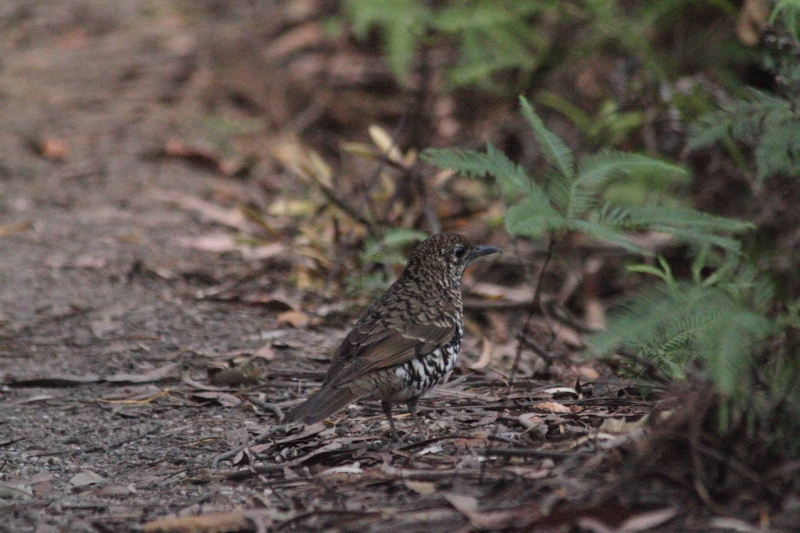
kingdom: Animalia
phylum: Chordata
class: Aves
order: Passeriformes
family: Turdidae
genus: Zoothera
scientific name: Zoothera lunulata
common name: Bassian thrush
